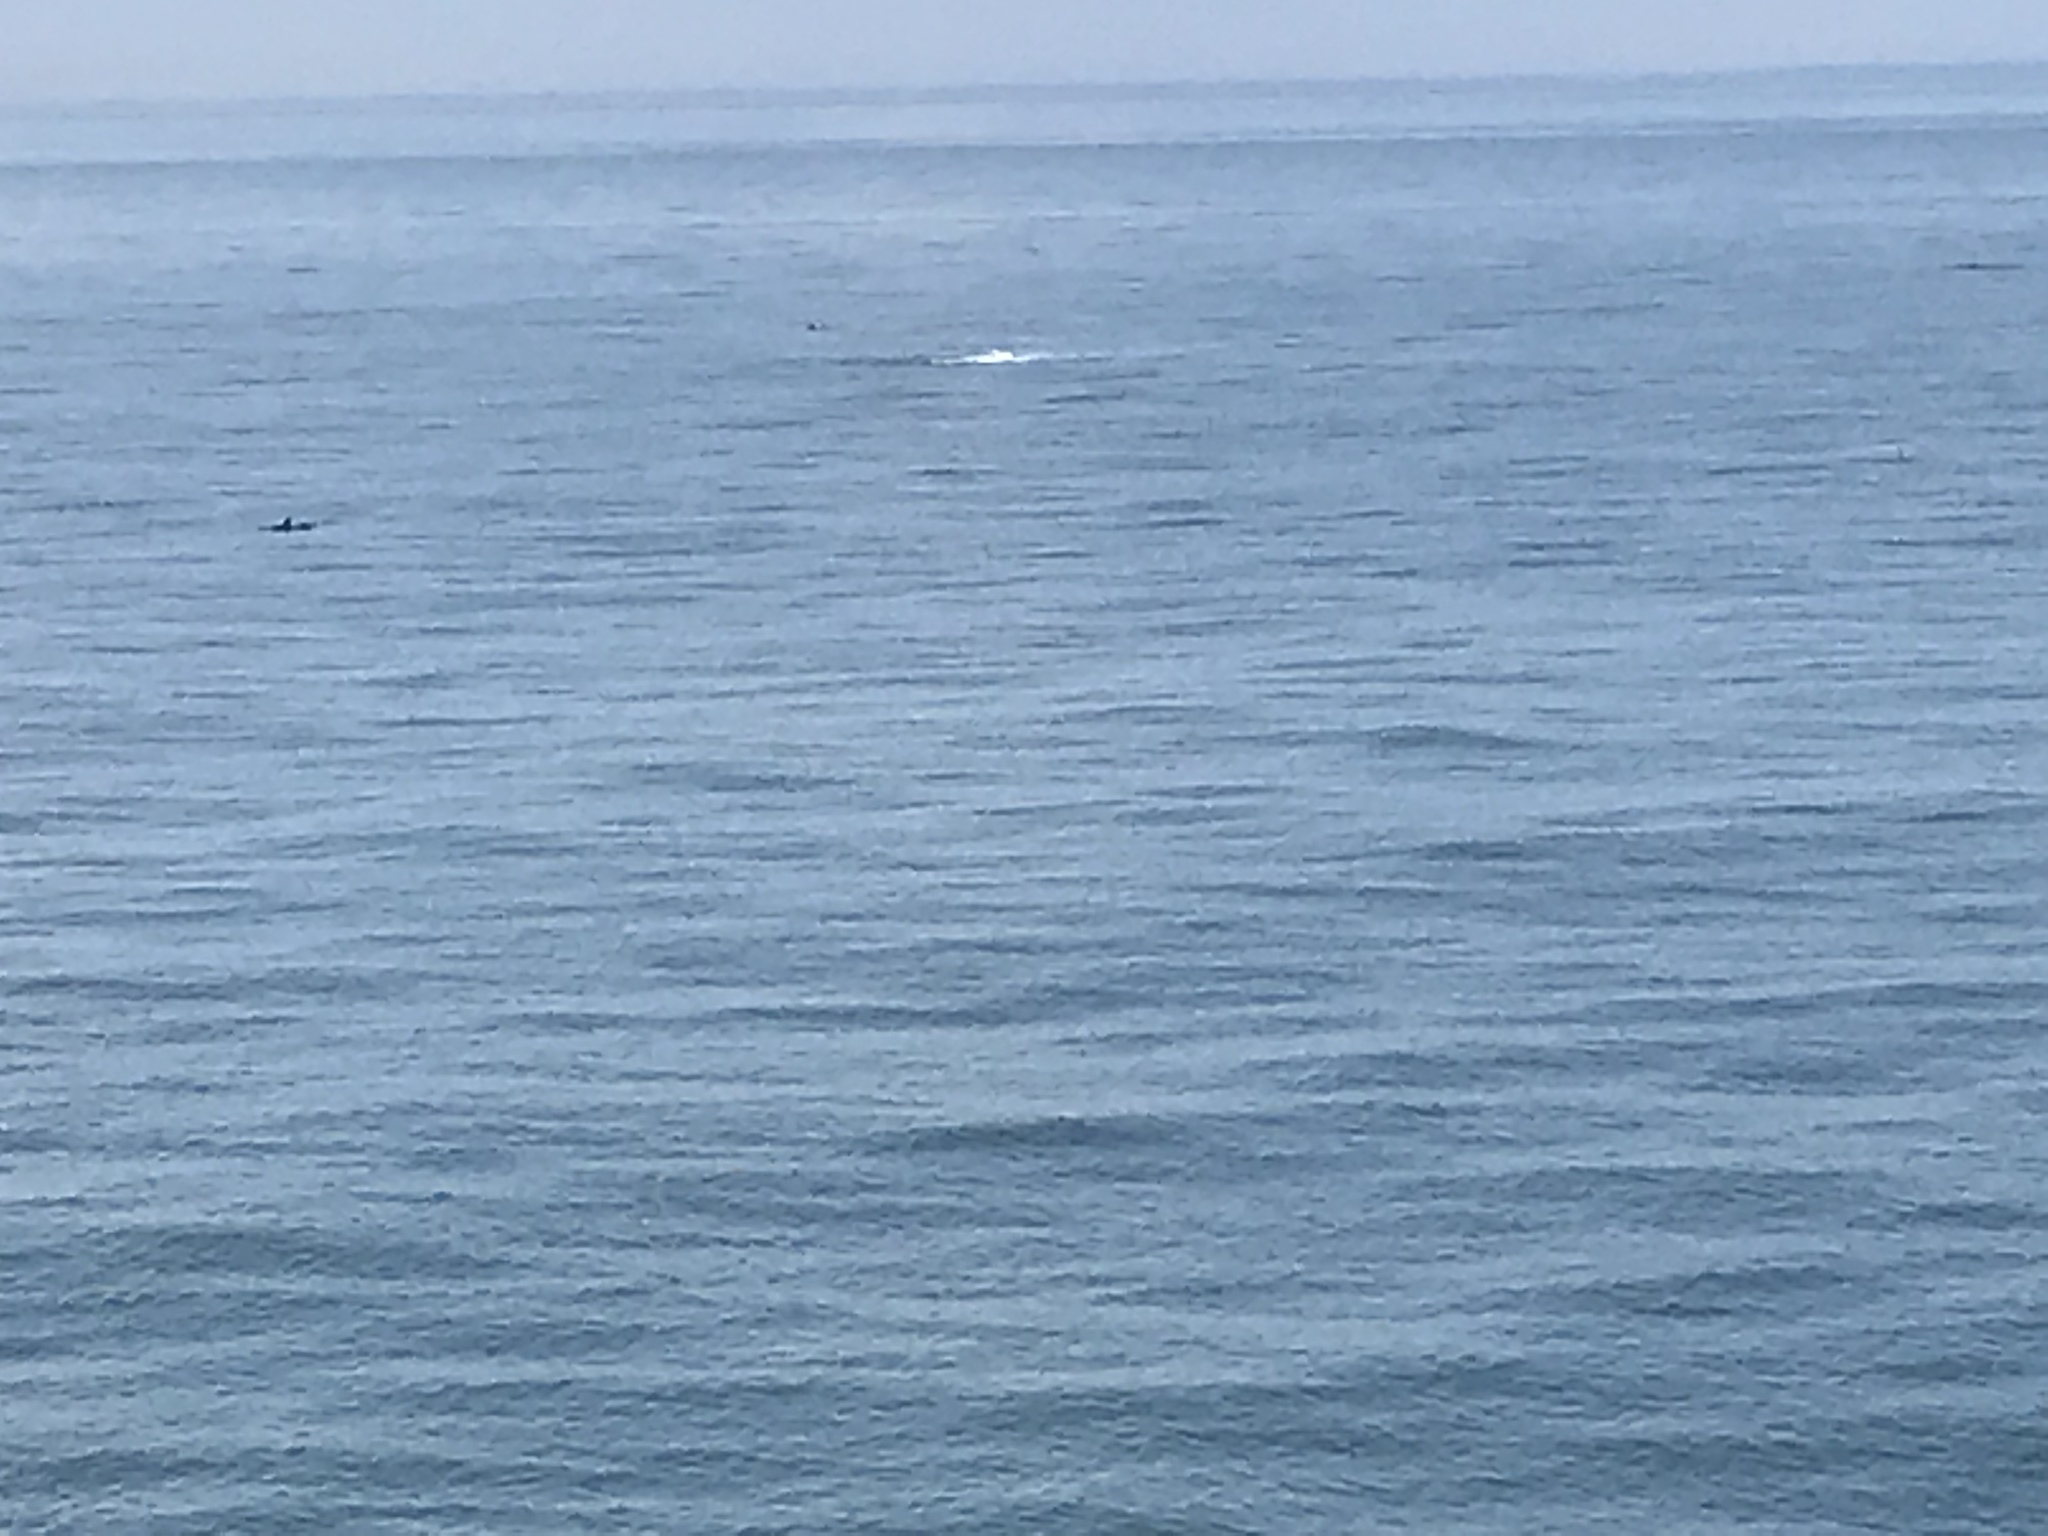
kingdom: Animalia
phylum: Chordata
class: Mammalia
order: Cetacea
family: Delphinidae
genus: Tursiops
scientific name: Tursiops truncatus
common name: Bottlenose dolphin
